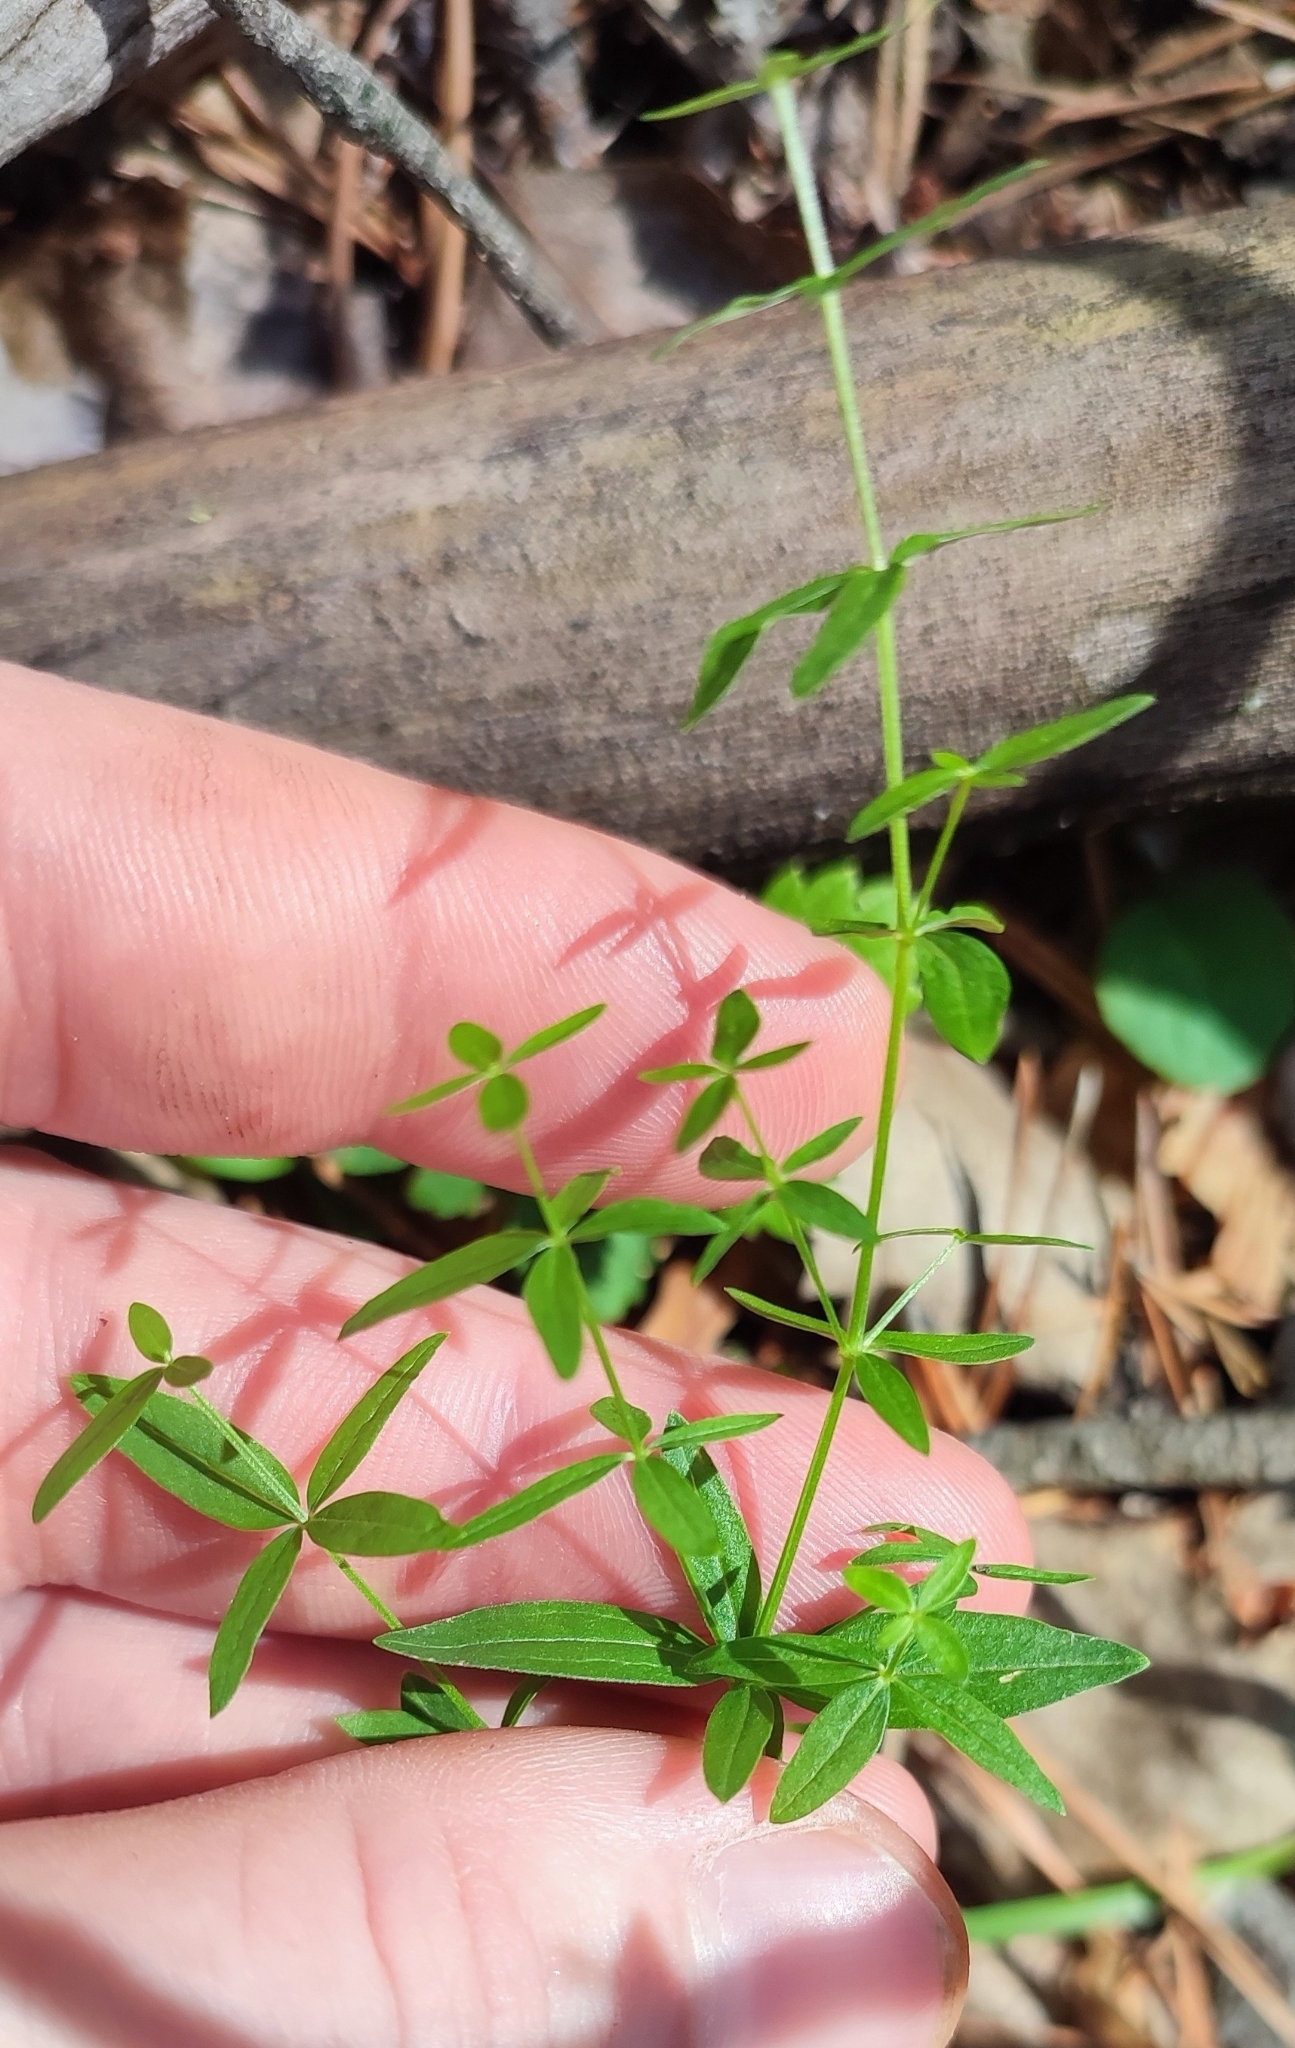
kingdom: Plantae
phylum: Tracheophyta
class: Magnoliopsida
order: Gentianales
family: Rubiaceae
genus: Galium
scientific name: Galium boreale
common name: Northern bedstraw
